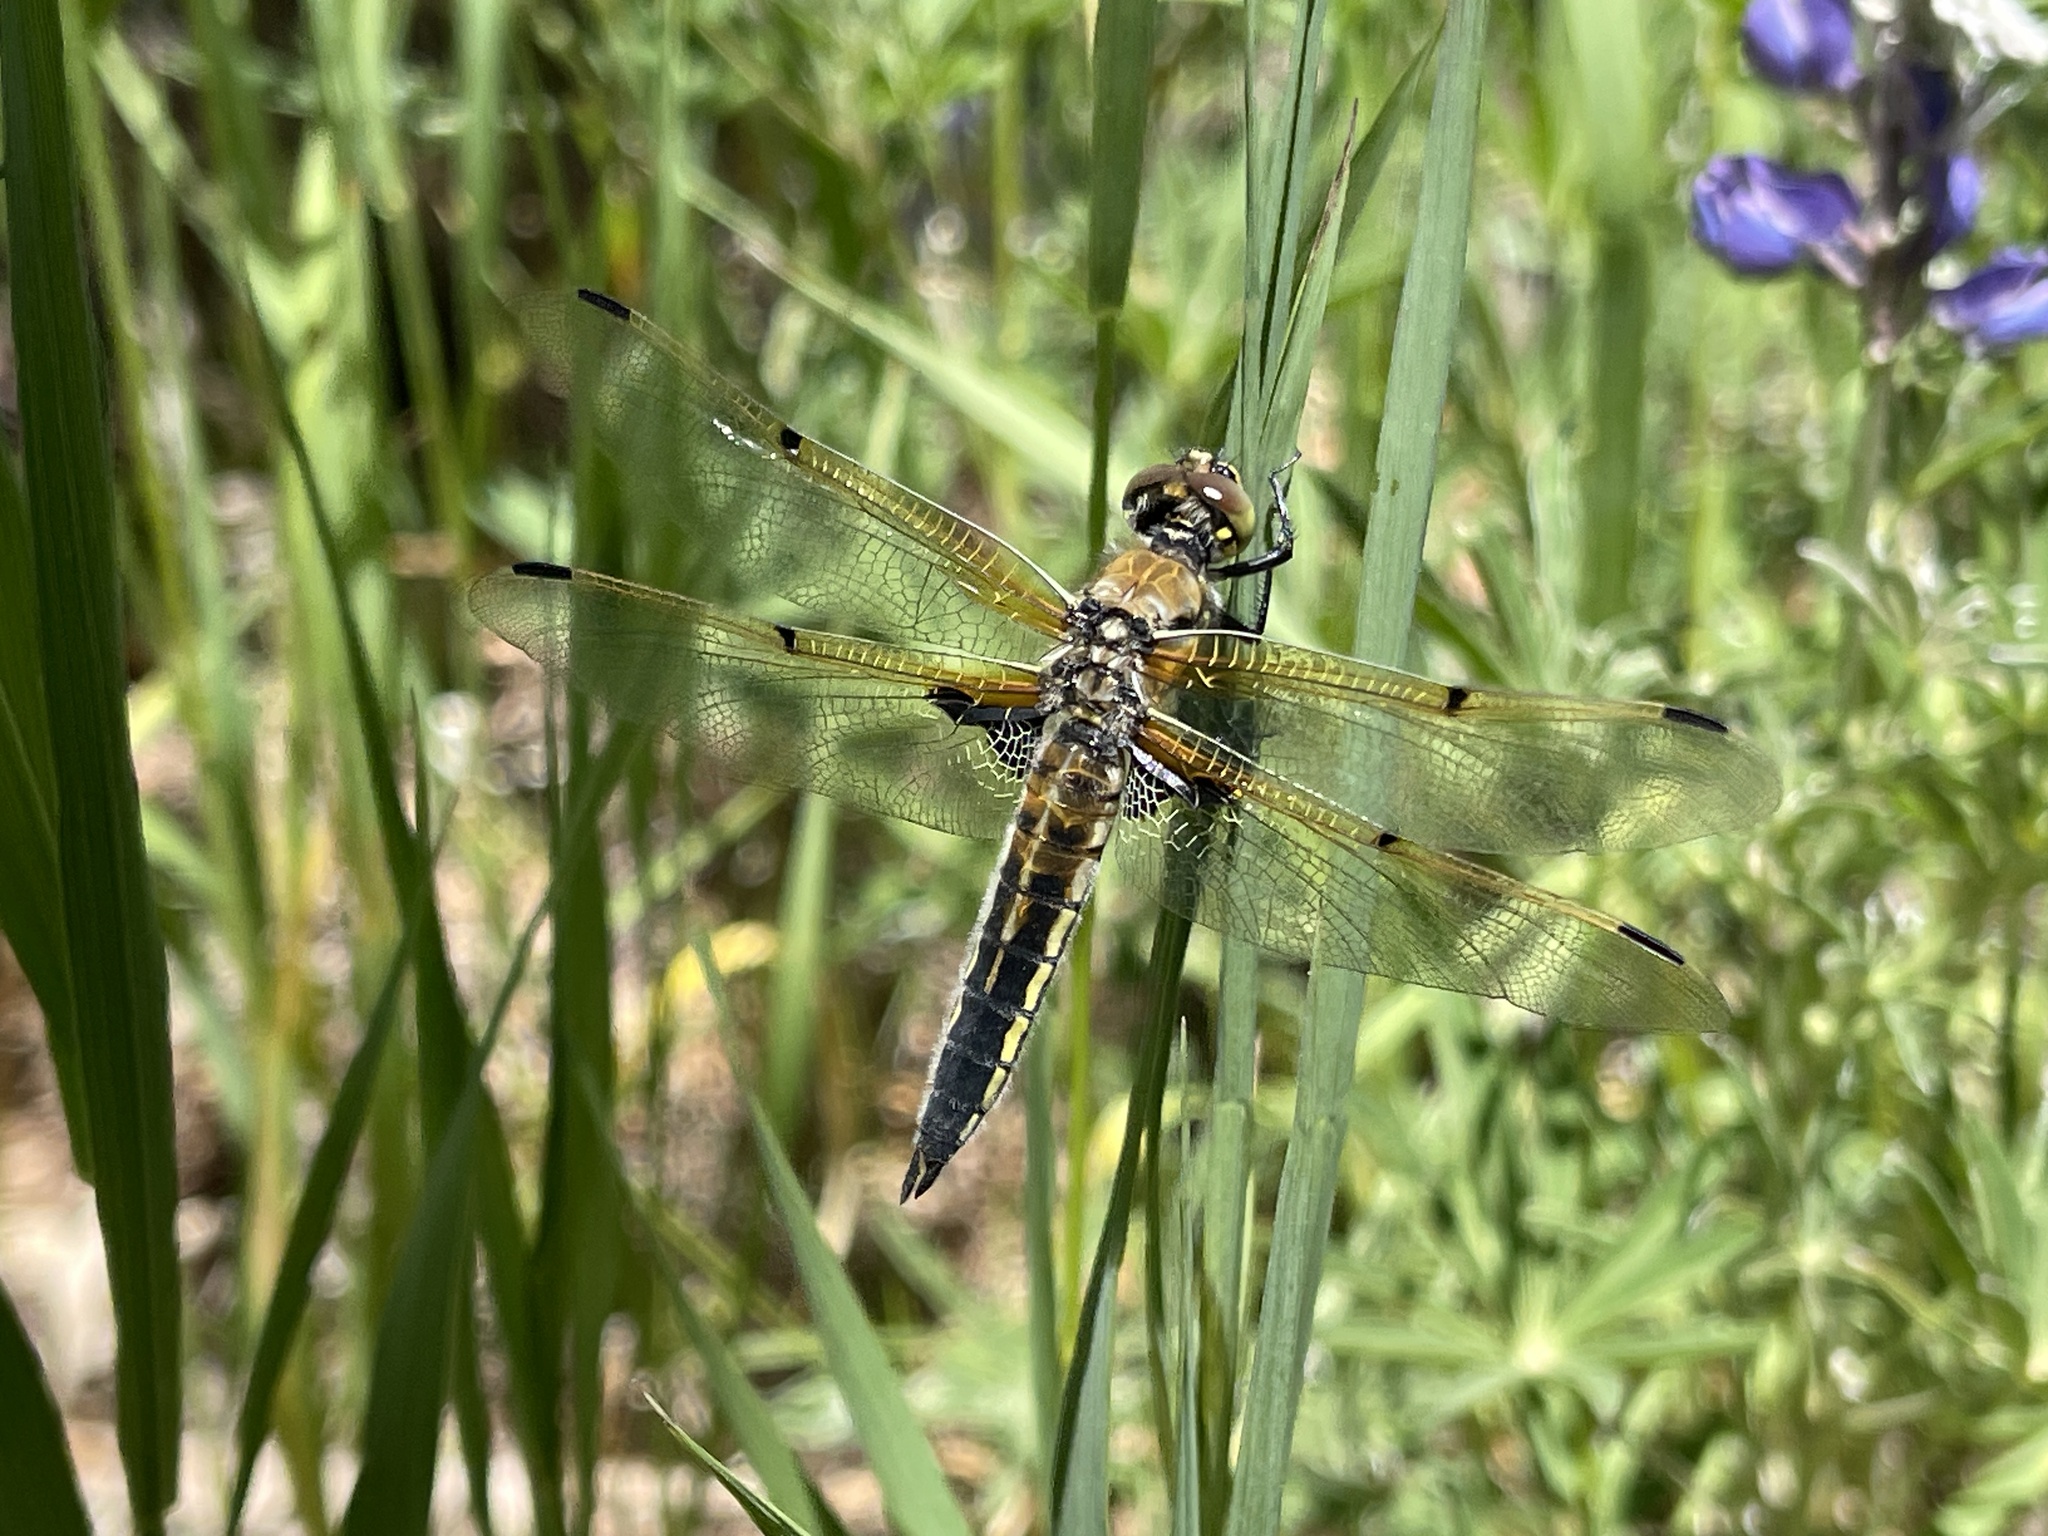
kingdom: Animalia
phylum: Arthropoda
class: Insecta
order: Odonata
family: Libellulidae
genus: Libellula
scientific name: Libellula quadrimaculata
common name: Four-spotted chaser
